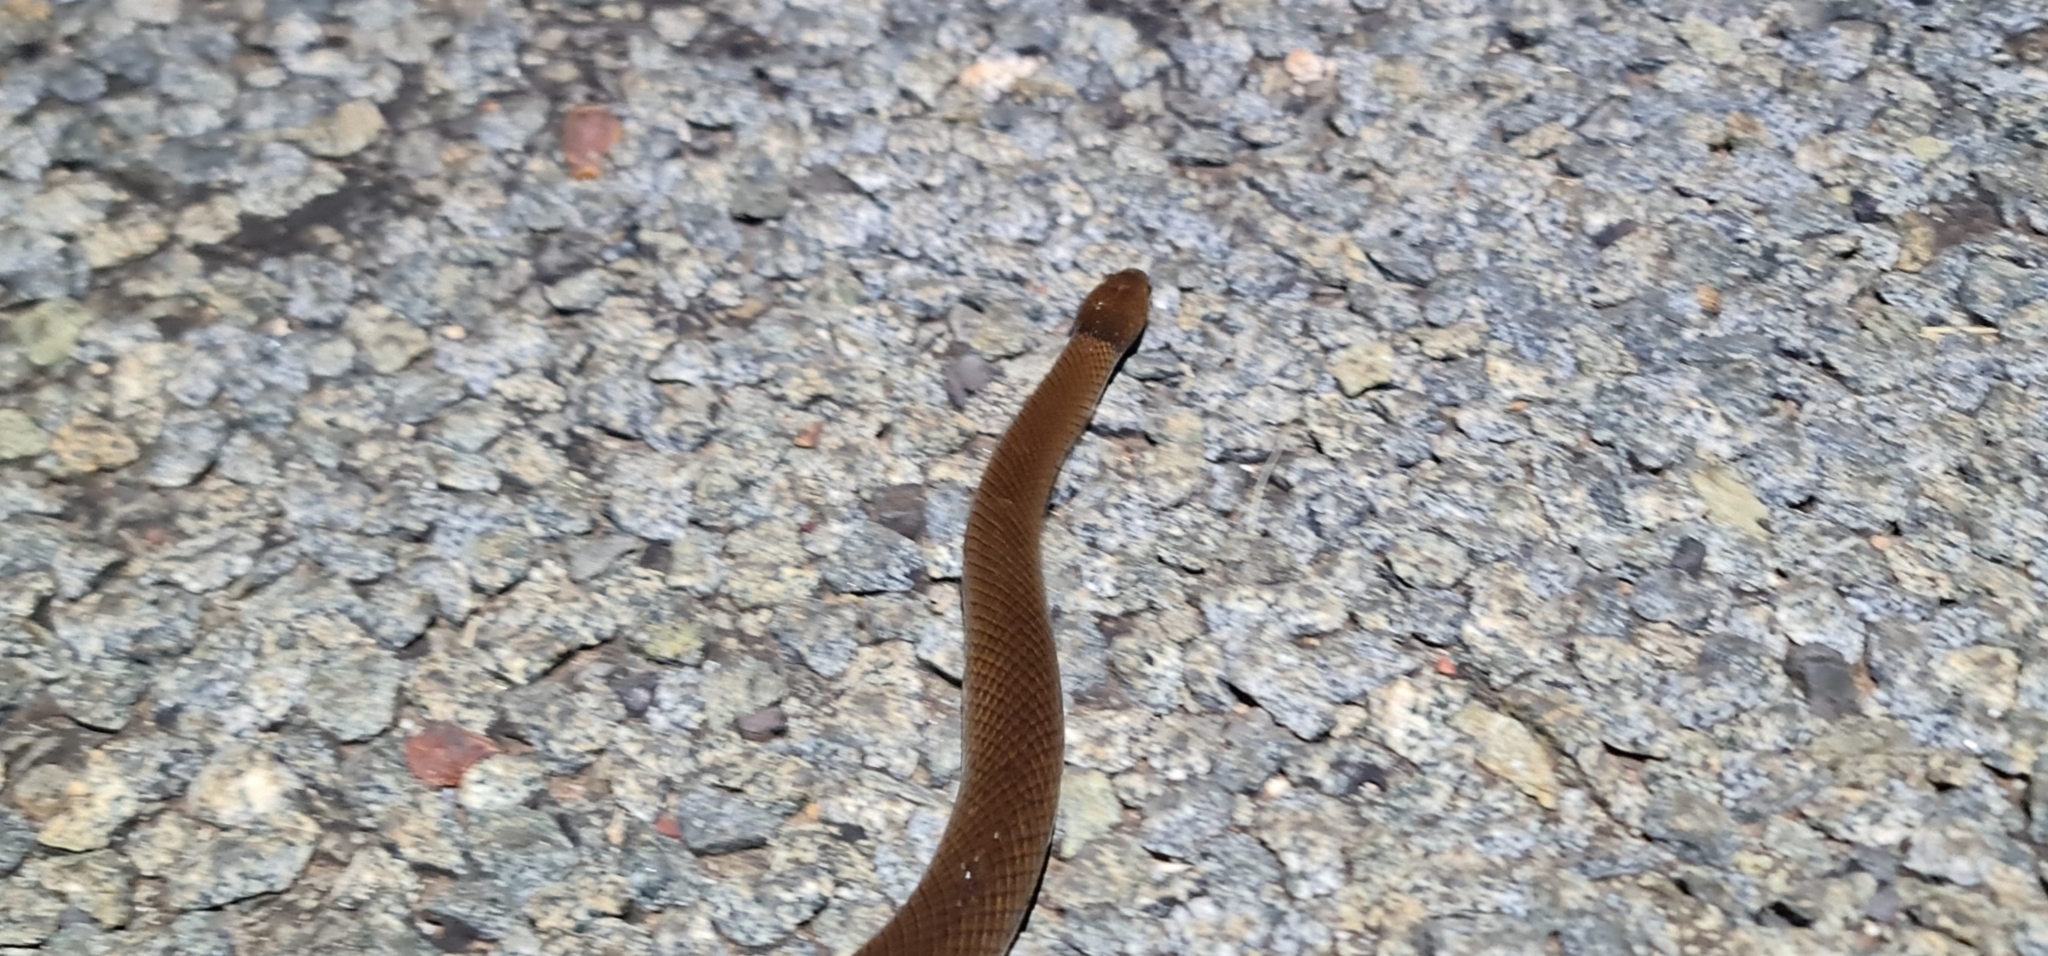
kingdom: Animalia
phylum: Chordata
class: Squamata
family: Elapidae
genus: Suta
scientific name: Suta suta
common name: Curl snake
